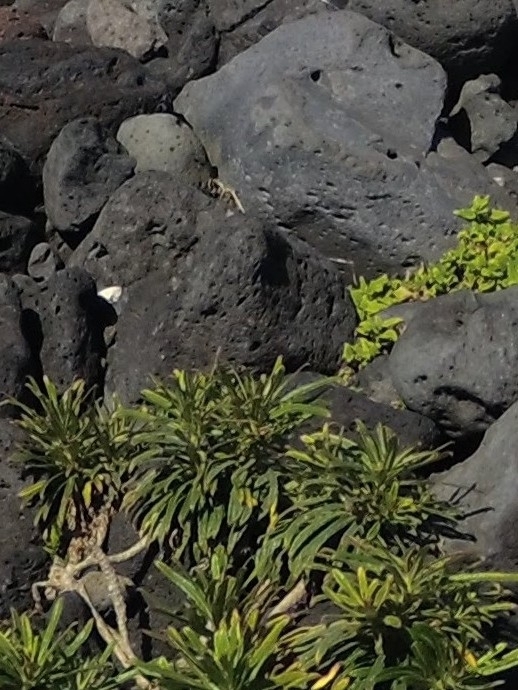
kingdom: Plantae
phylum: Tracheophyta
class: Magnoliopsida
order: Asterales
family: Campanulaceae
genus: Campanula
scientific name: Campanula vidalii
